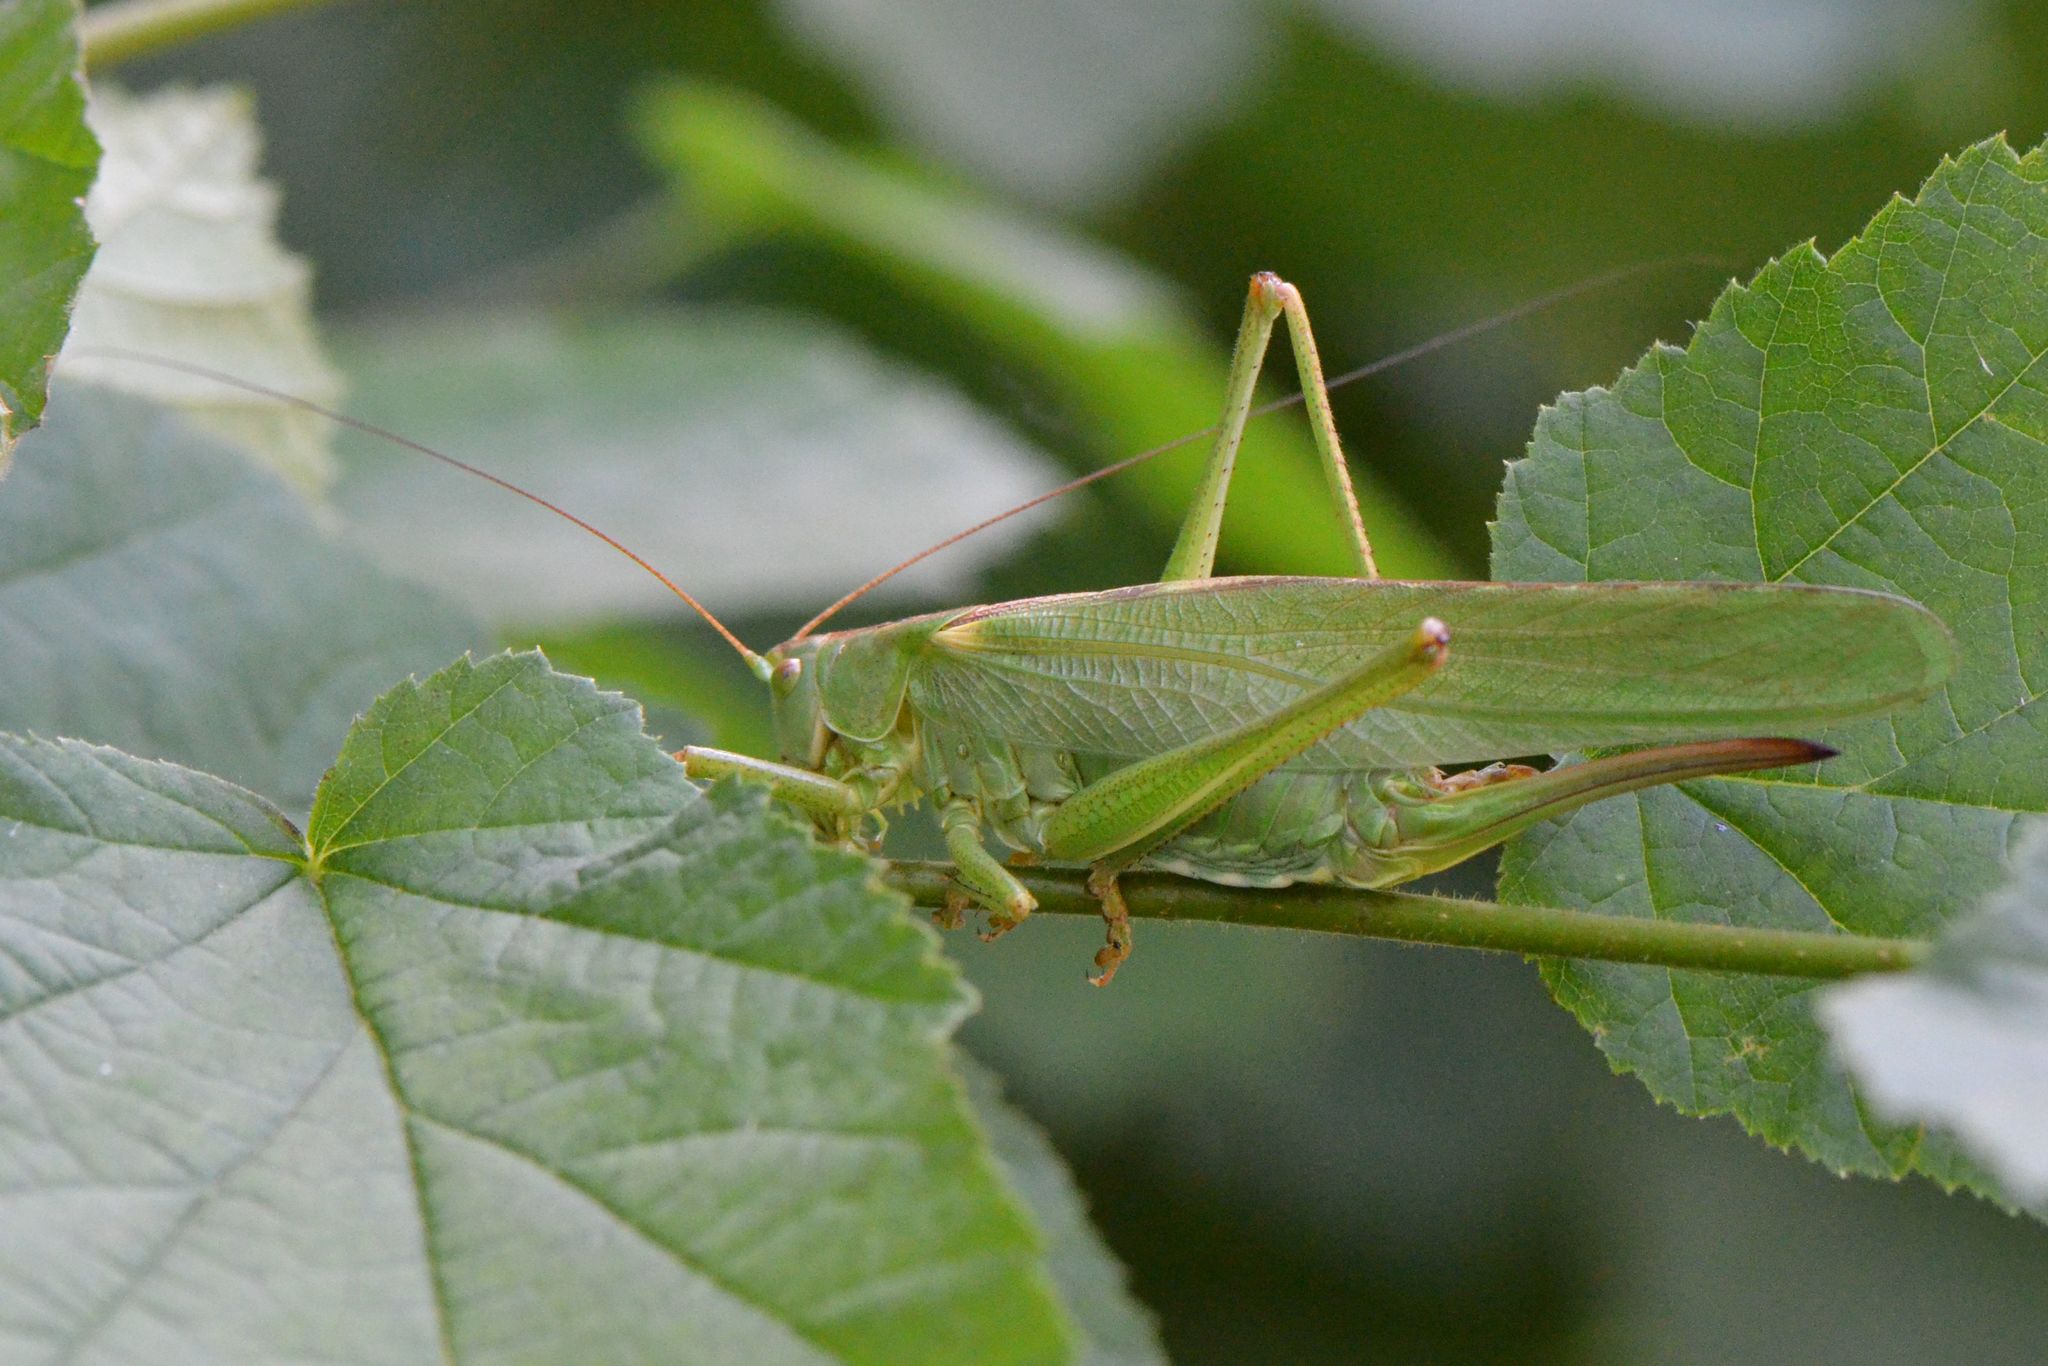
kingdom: Animalia
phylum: Arthropoda
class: Insecta
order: Orthoptera
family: Tettigoniidae
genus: Tettigonia
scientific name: Tettigonia viridissima
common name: Great green bush-cricket
